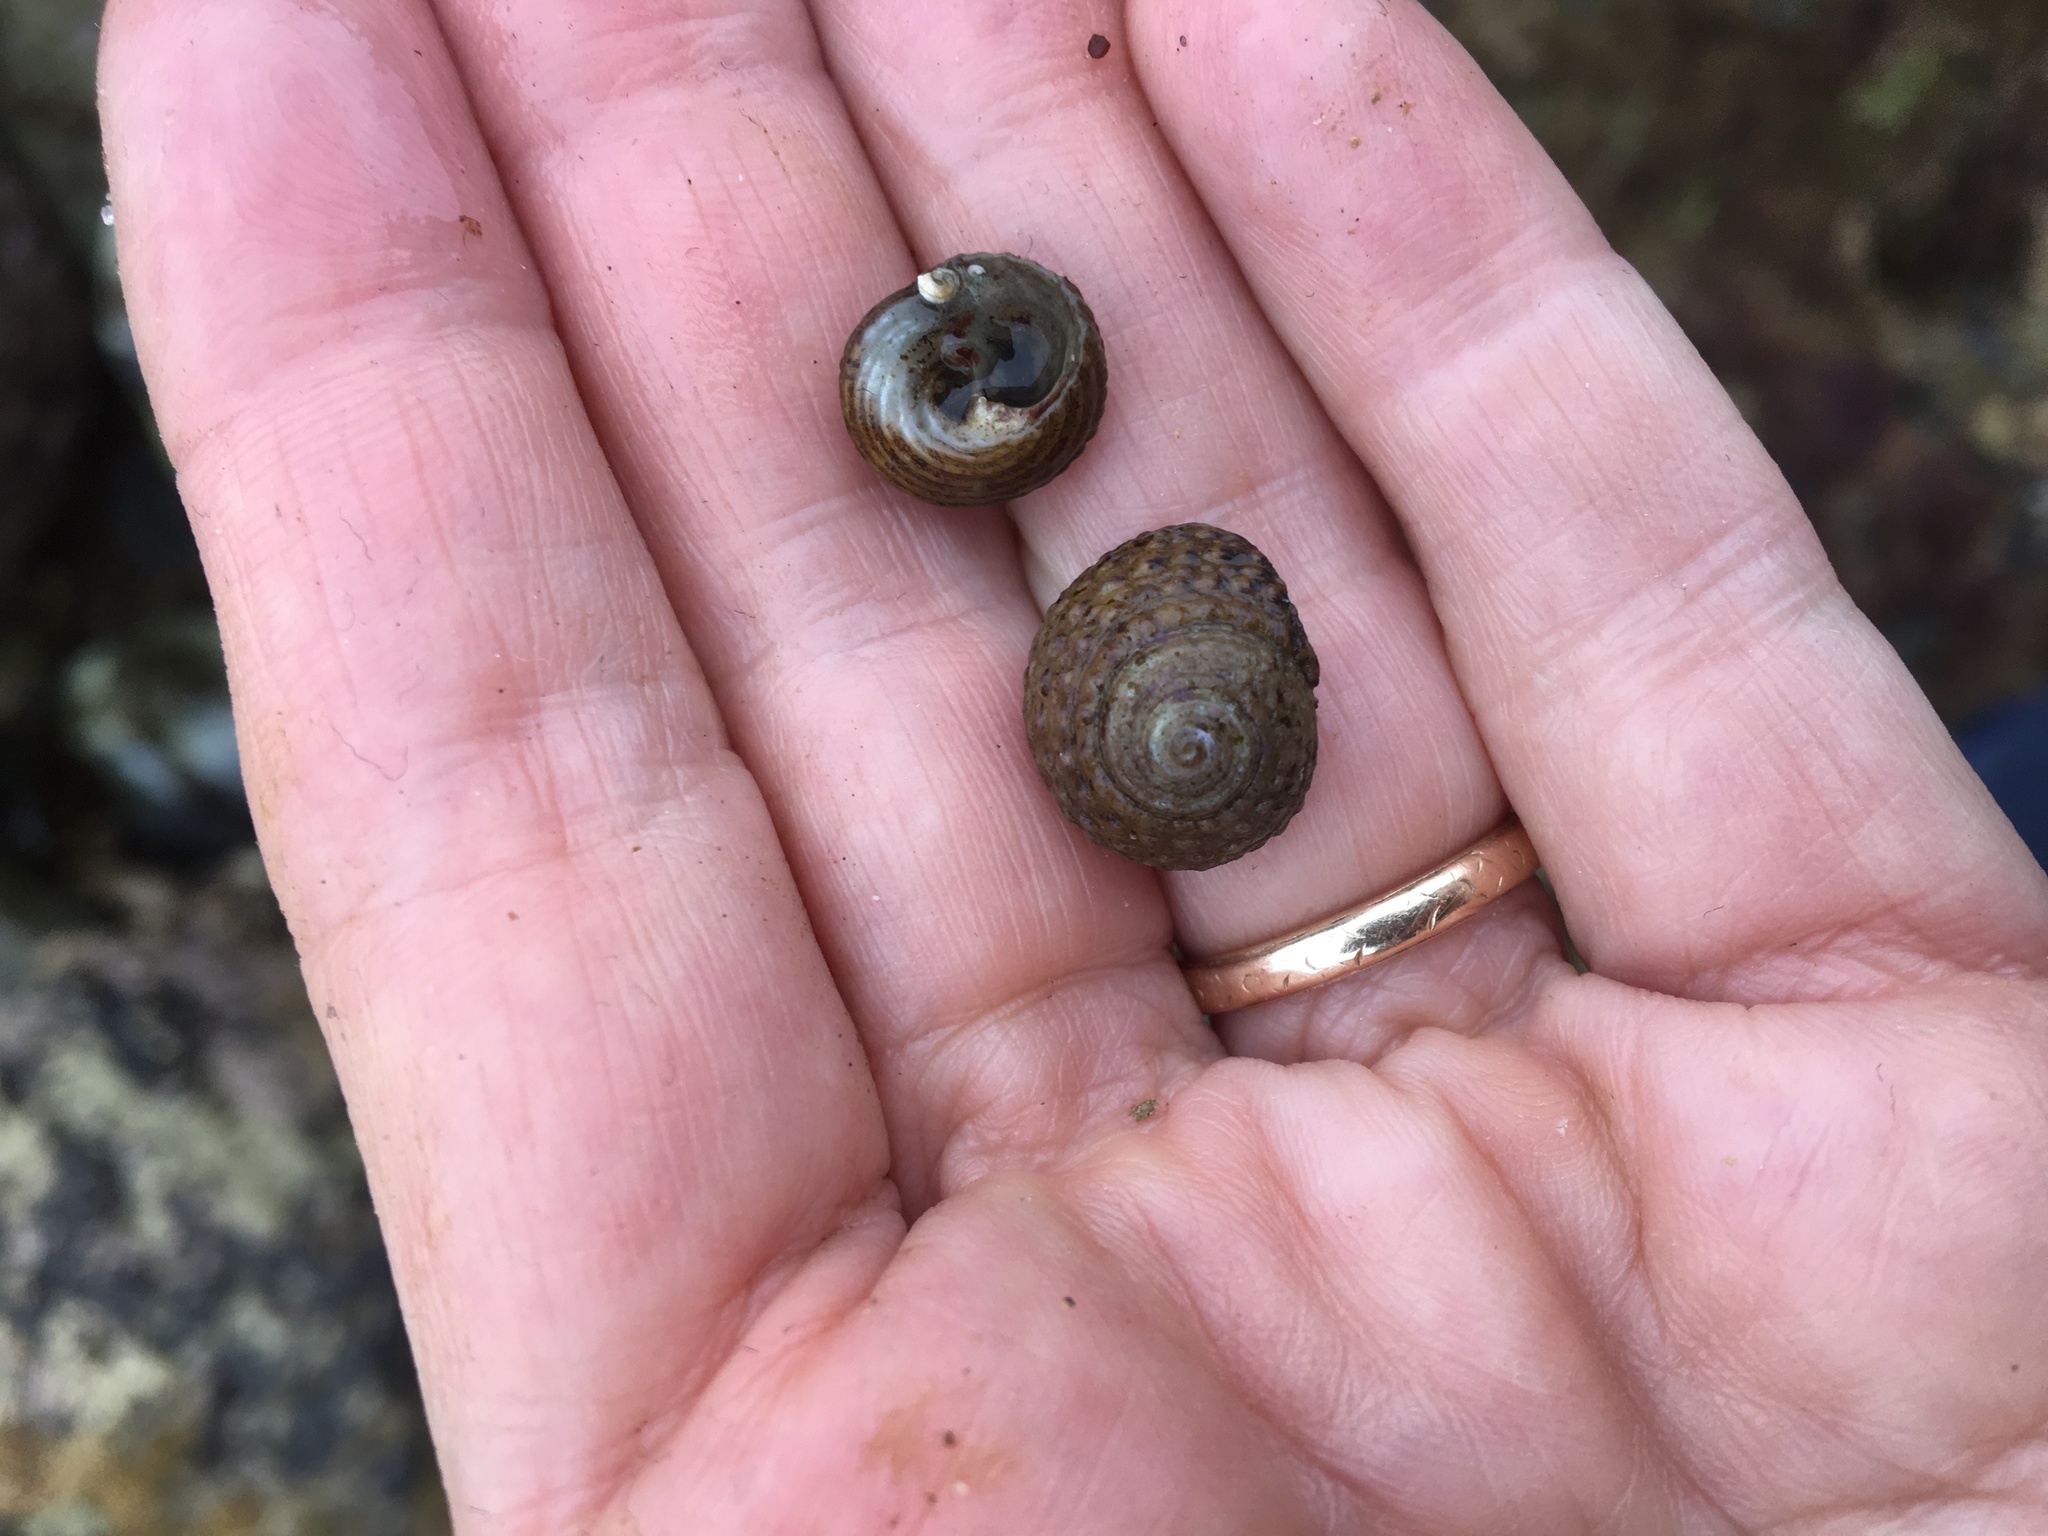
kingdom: Animalia
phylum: Mollusca
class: Gastropoda
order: Trochida
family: Tegulidae
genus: Tegula
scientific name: Tegula eiseni
